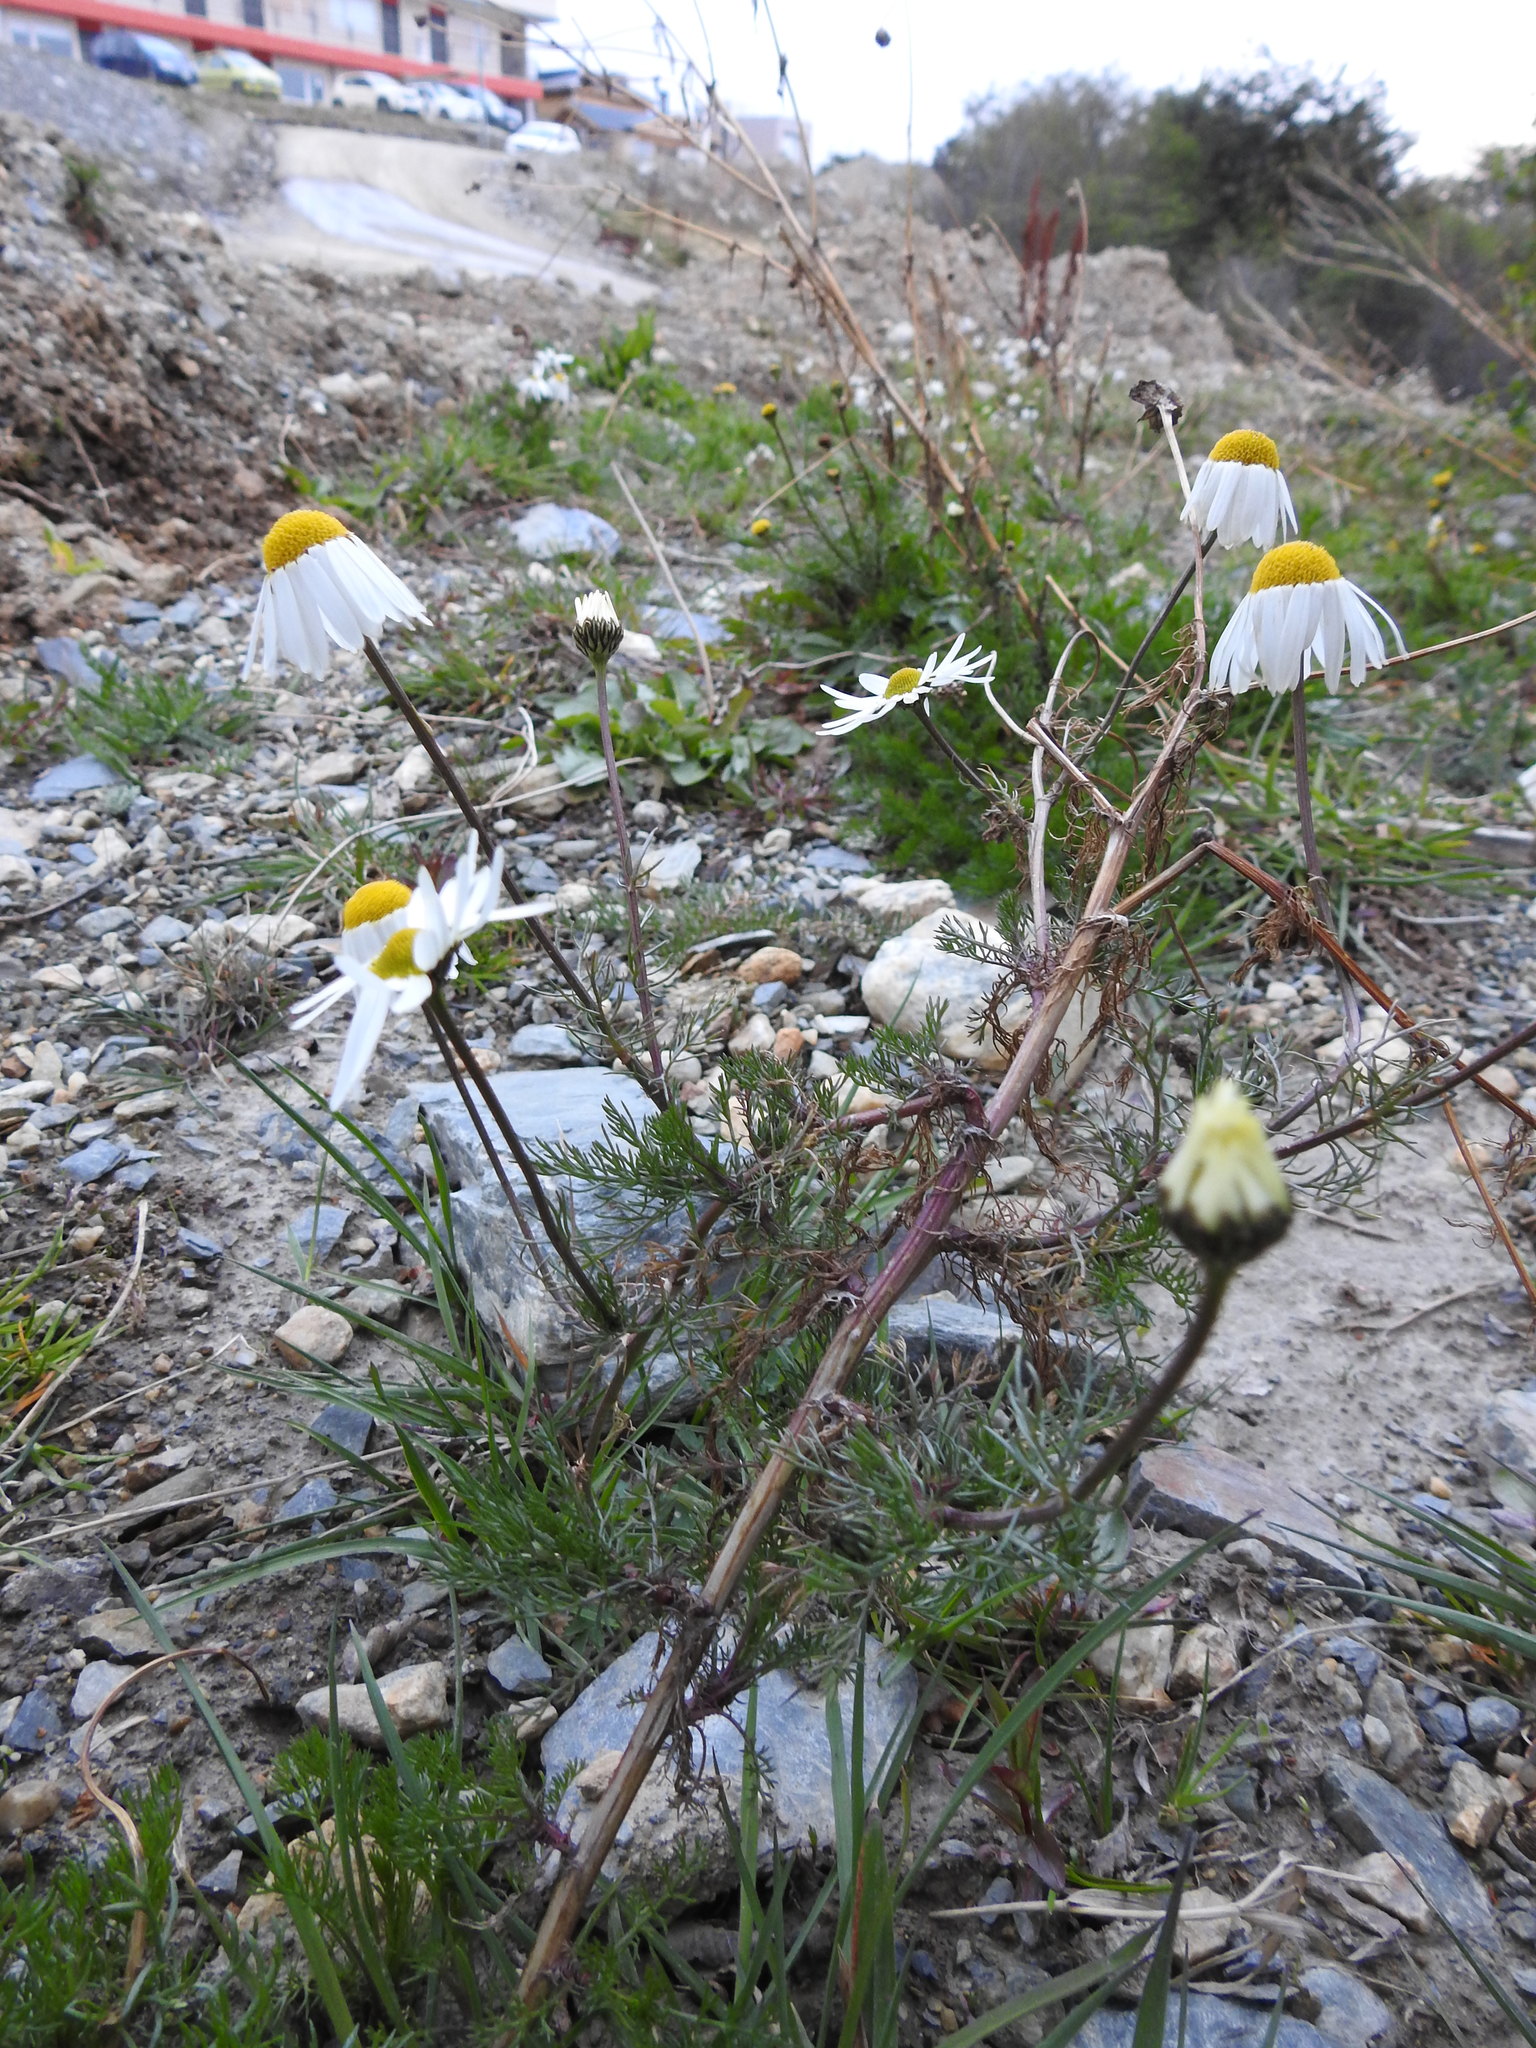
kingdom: Plantae
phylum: Tracheophyta
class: Magnoliopsida
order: Asterales
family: Asteraceae
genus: Tripleurospermum
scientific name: Tripleurospermum inodorum
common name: Scentless mayweed
